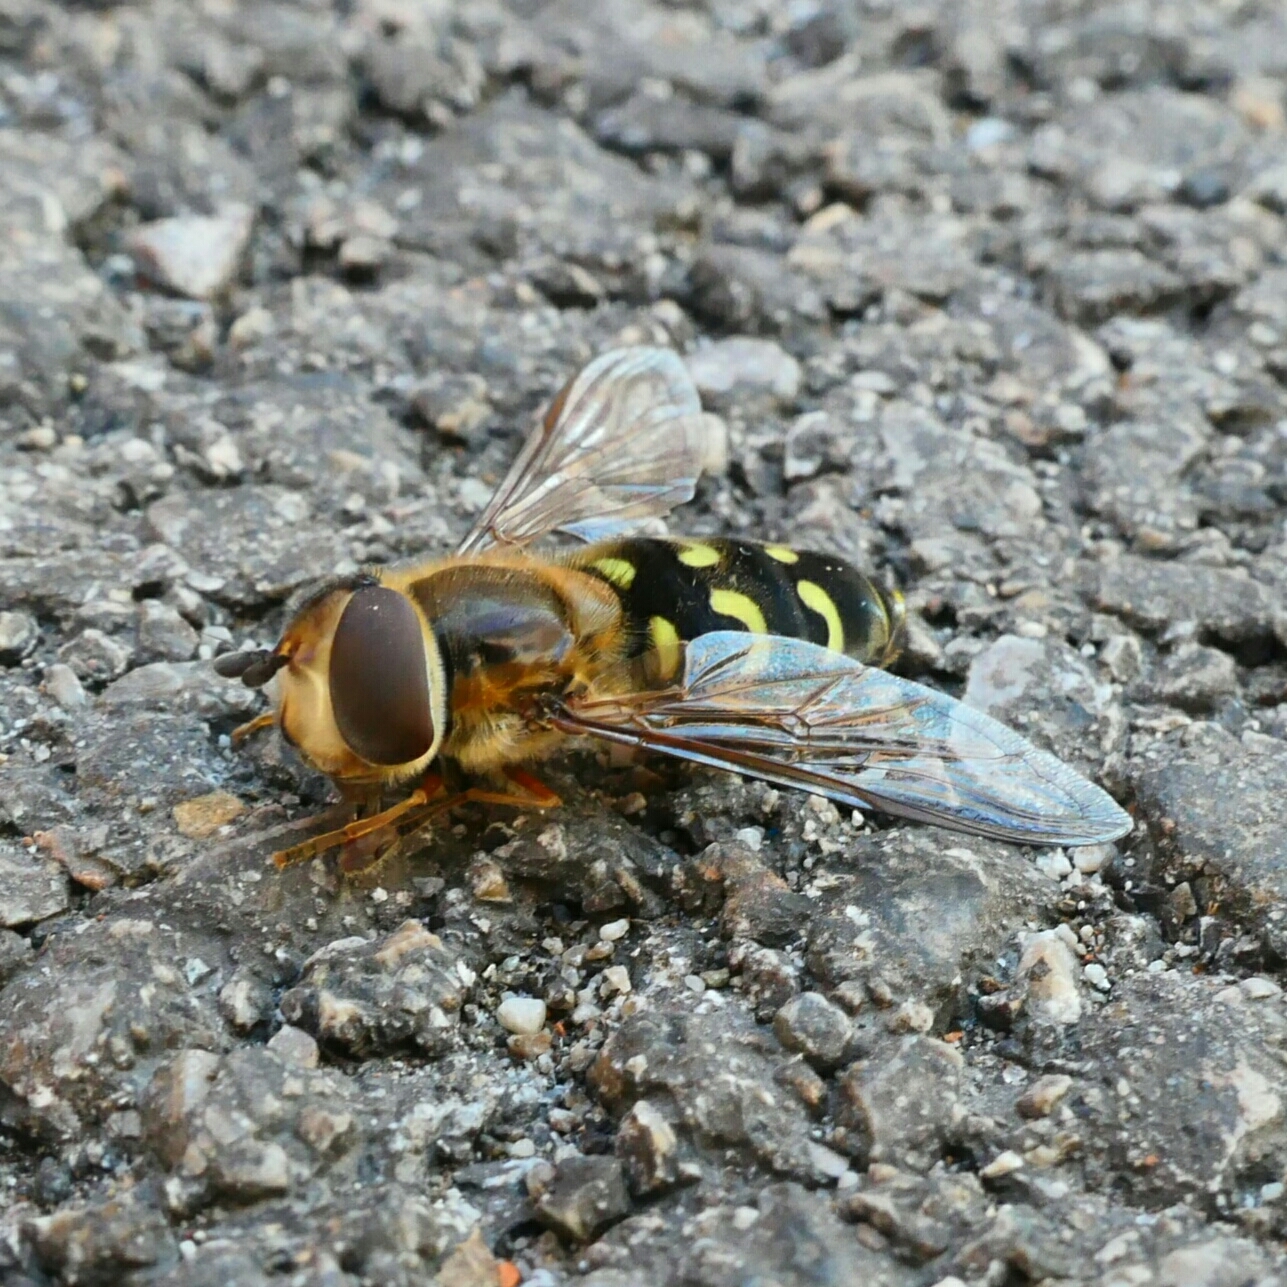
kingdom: Animalia
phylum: Arthropoda
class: Insecta
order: Diptera
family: Syrphidae
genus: Scaeva
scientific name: Scaeva selenitica
